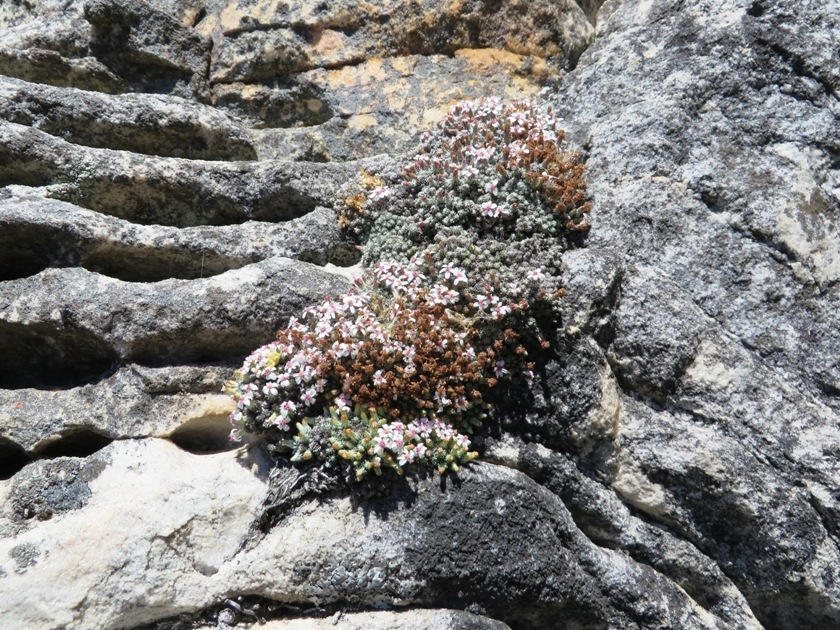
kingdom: Plantae
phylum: Tracheophyta
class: Magnoliopsida
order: Asterales
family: Asteraceae
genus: Muscosomorphe
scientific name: Muscosomorphe aretioides
